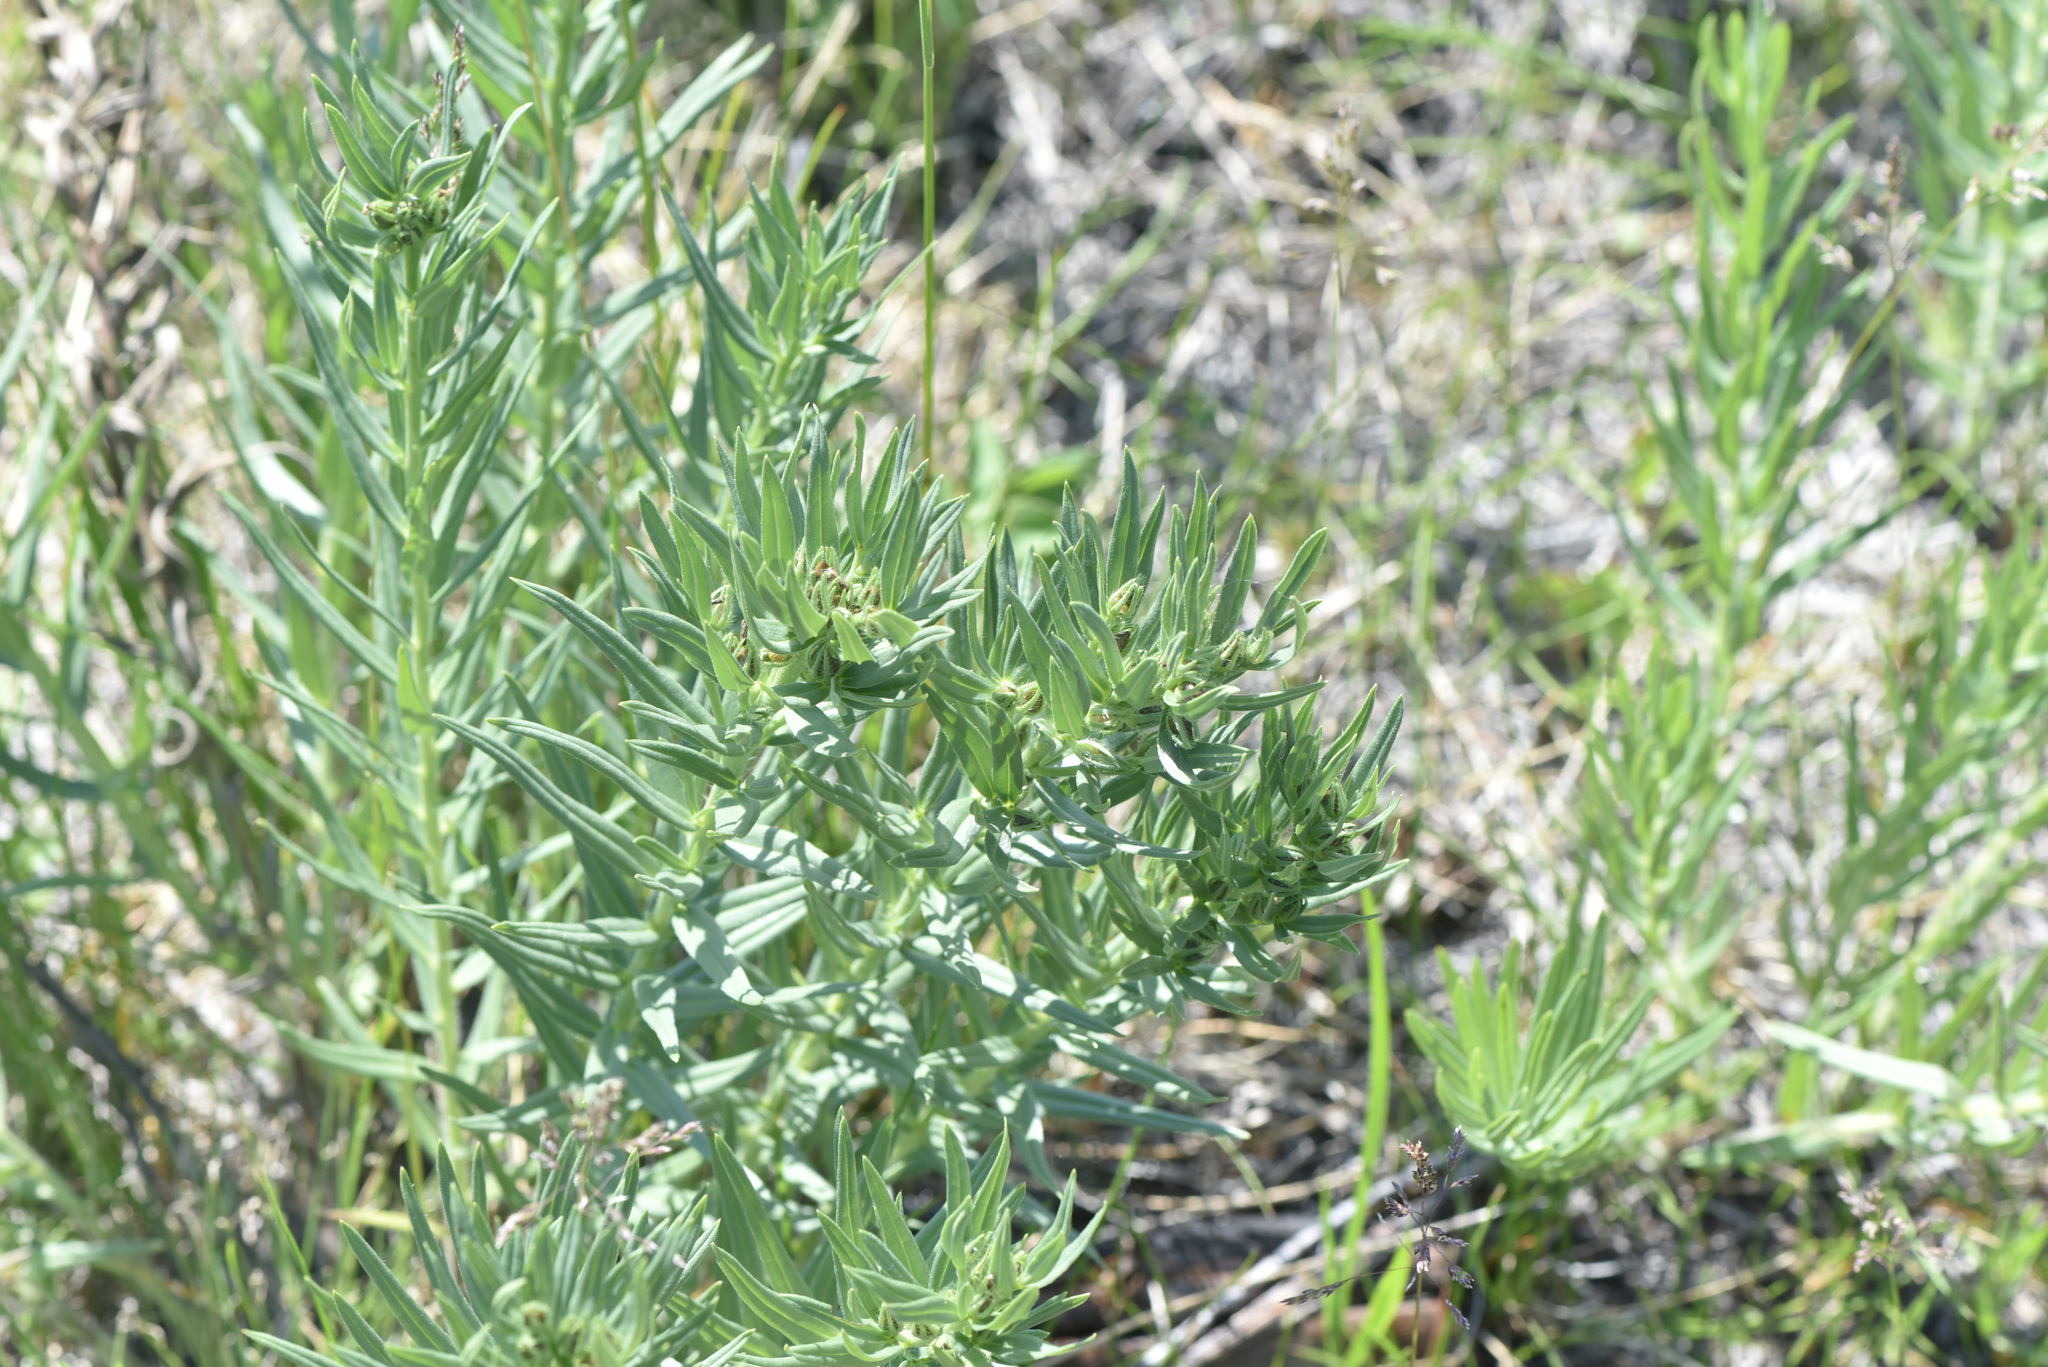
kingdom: Plantae
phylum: Tracheophyta
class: Magnoliopsida
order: Boraginales
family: Boraginaceae
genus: Lithospermum
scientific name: Lithospermum ruderale
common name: Western gromwell
